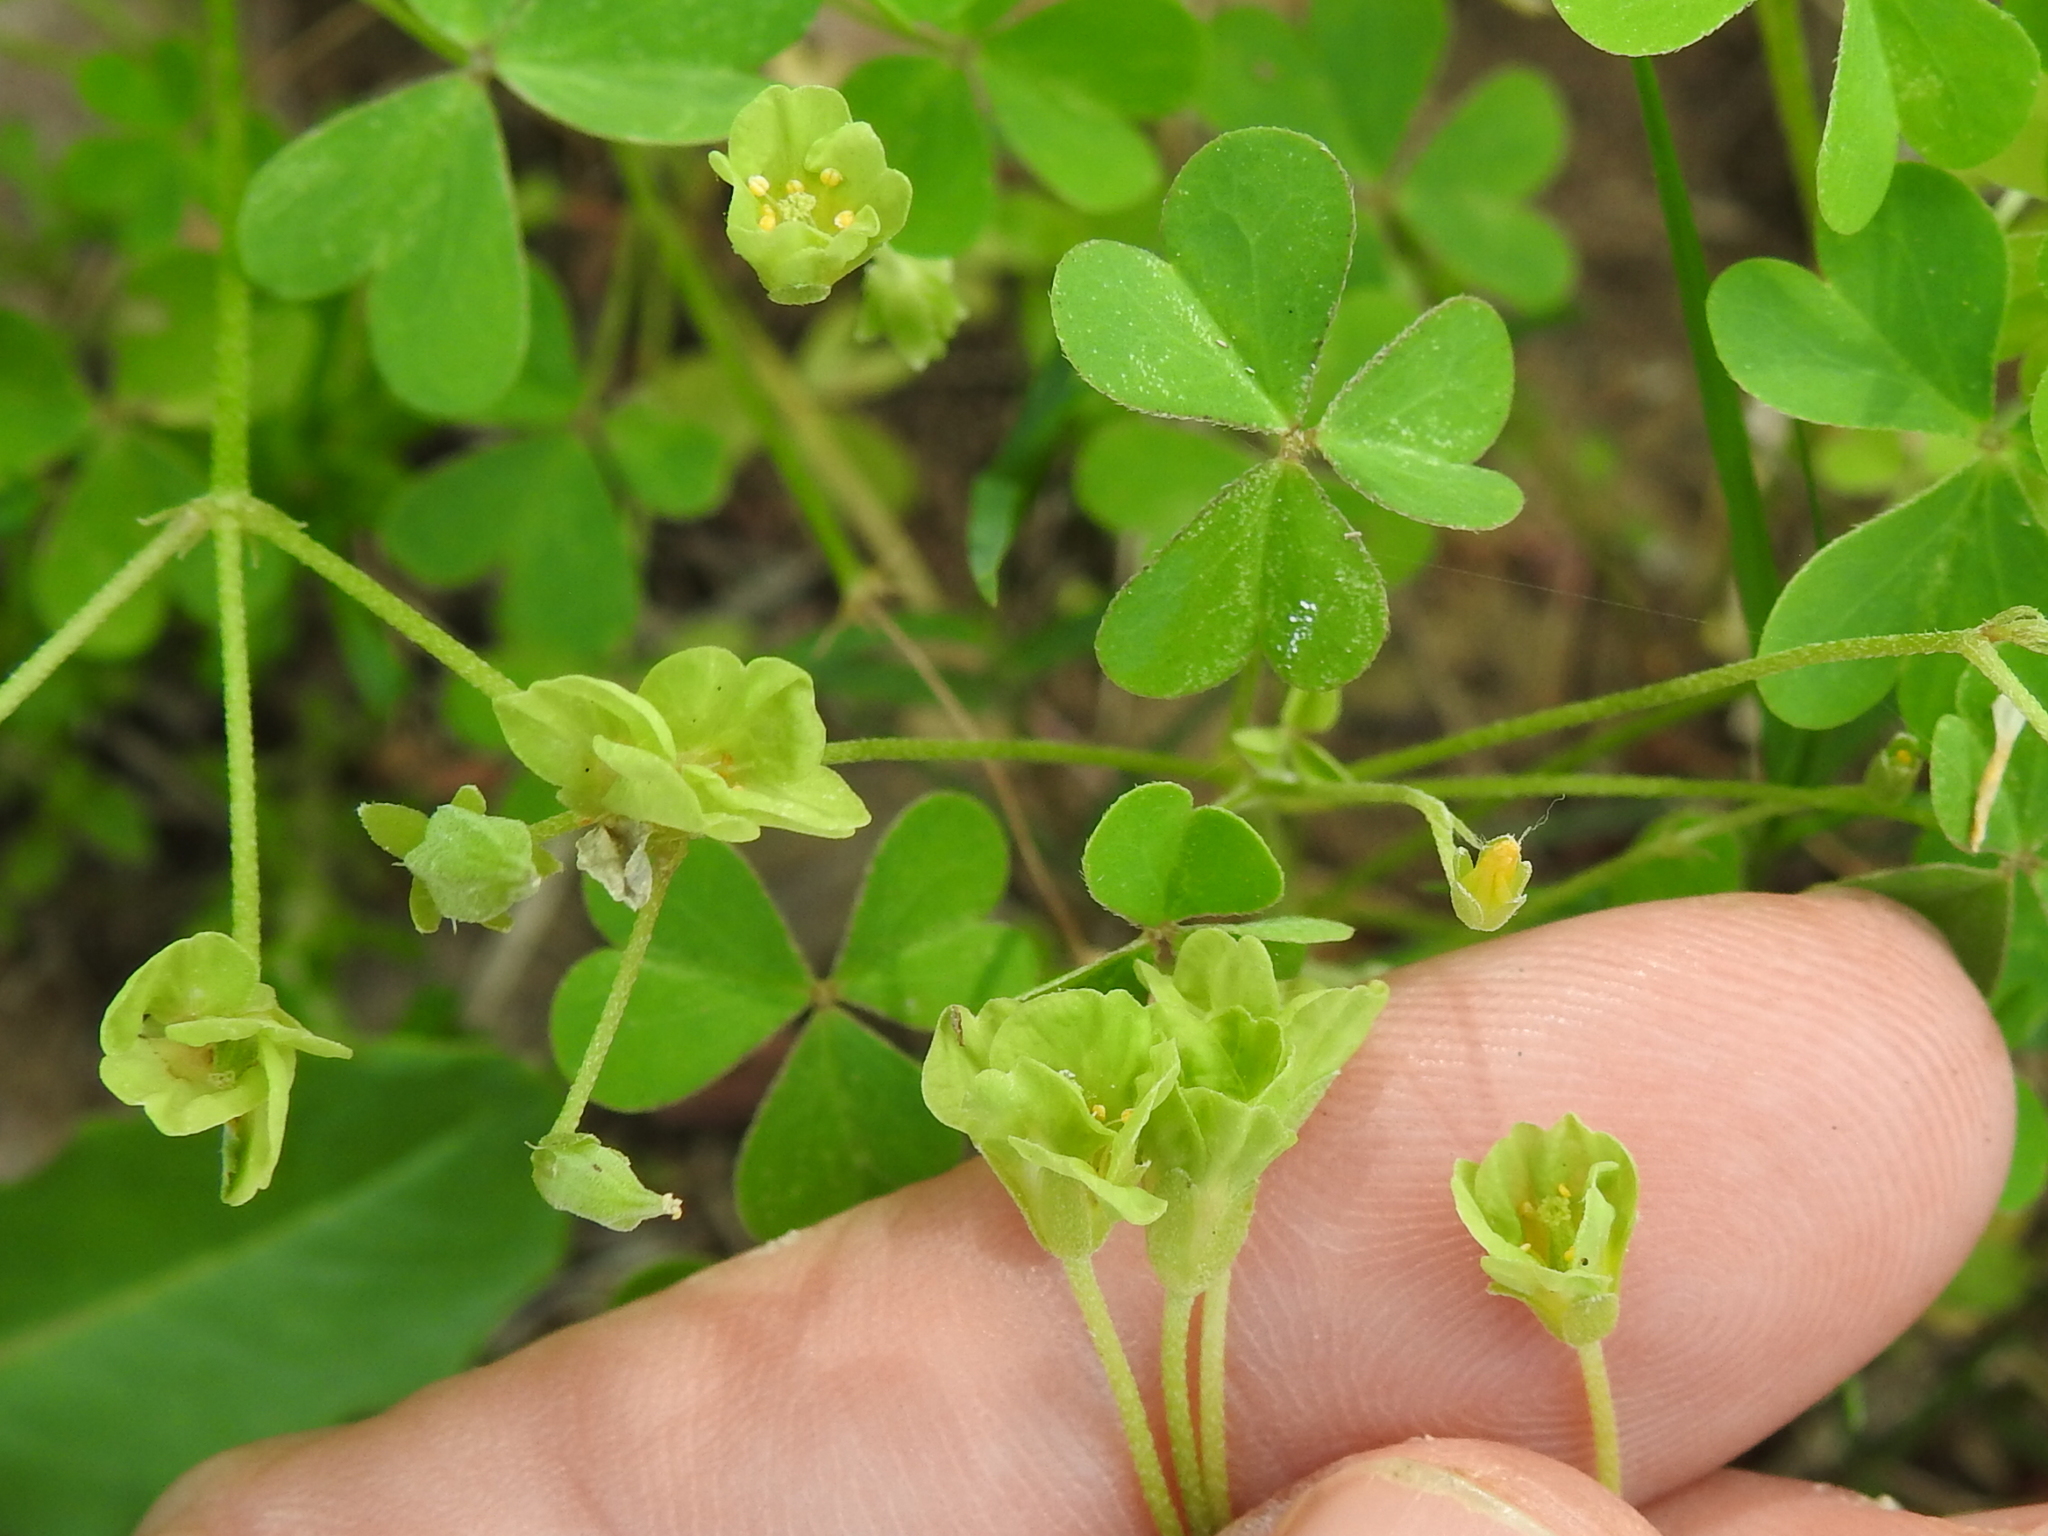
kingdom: Plantae
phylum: Tracheophyta
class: Magnoliopsida
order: Oxalidales
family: Oxalidaceae
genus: Oxalis
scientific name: Oxalis dillenii
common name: Sussex yellow-sorrel
